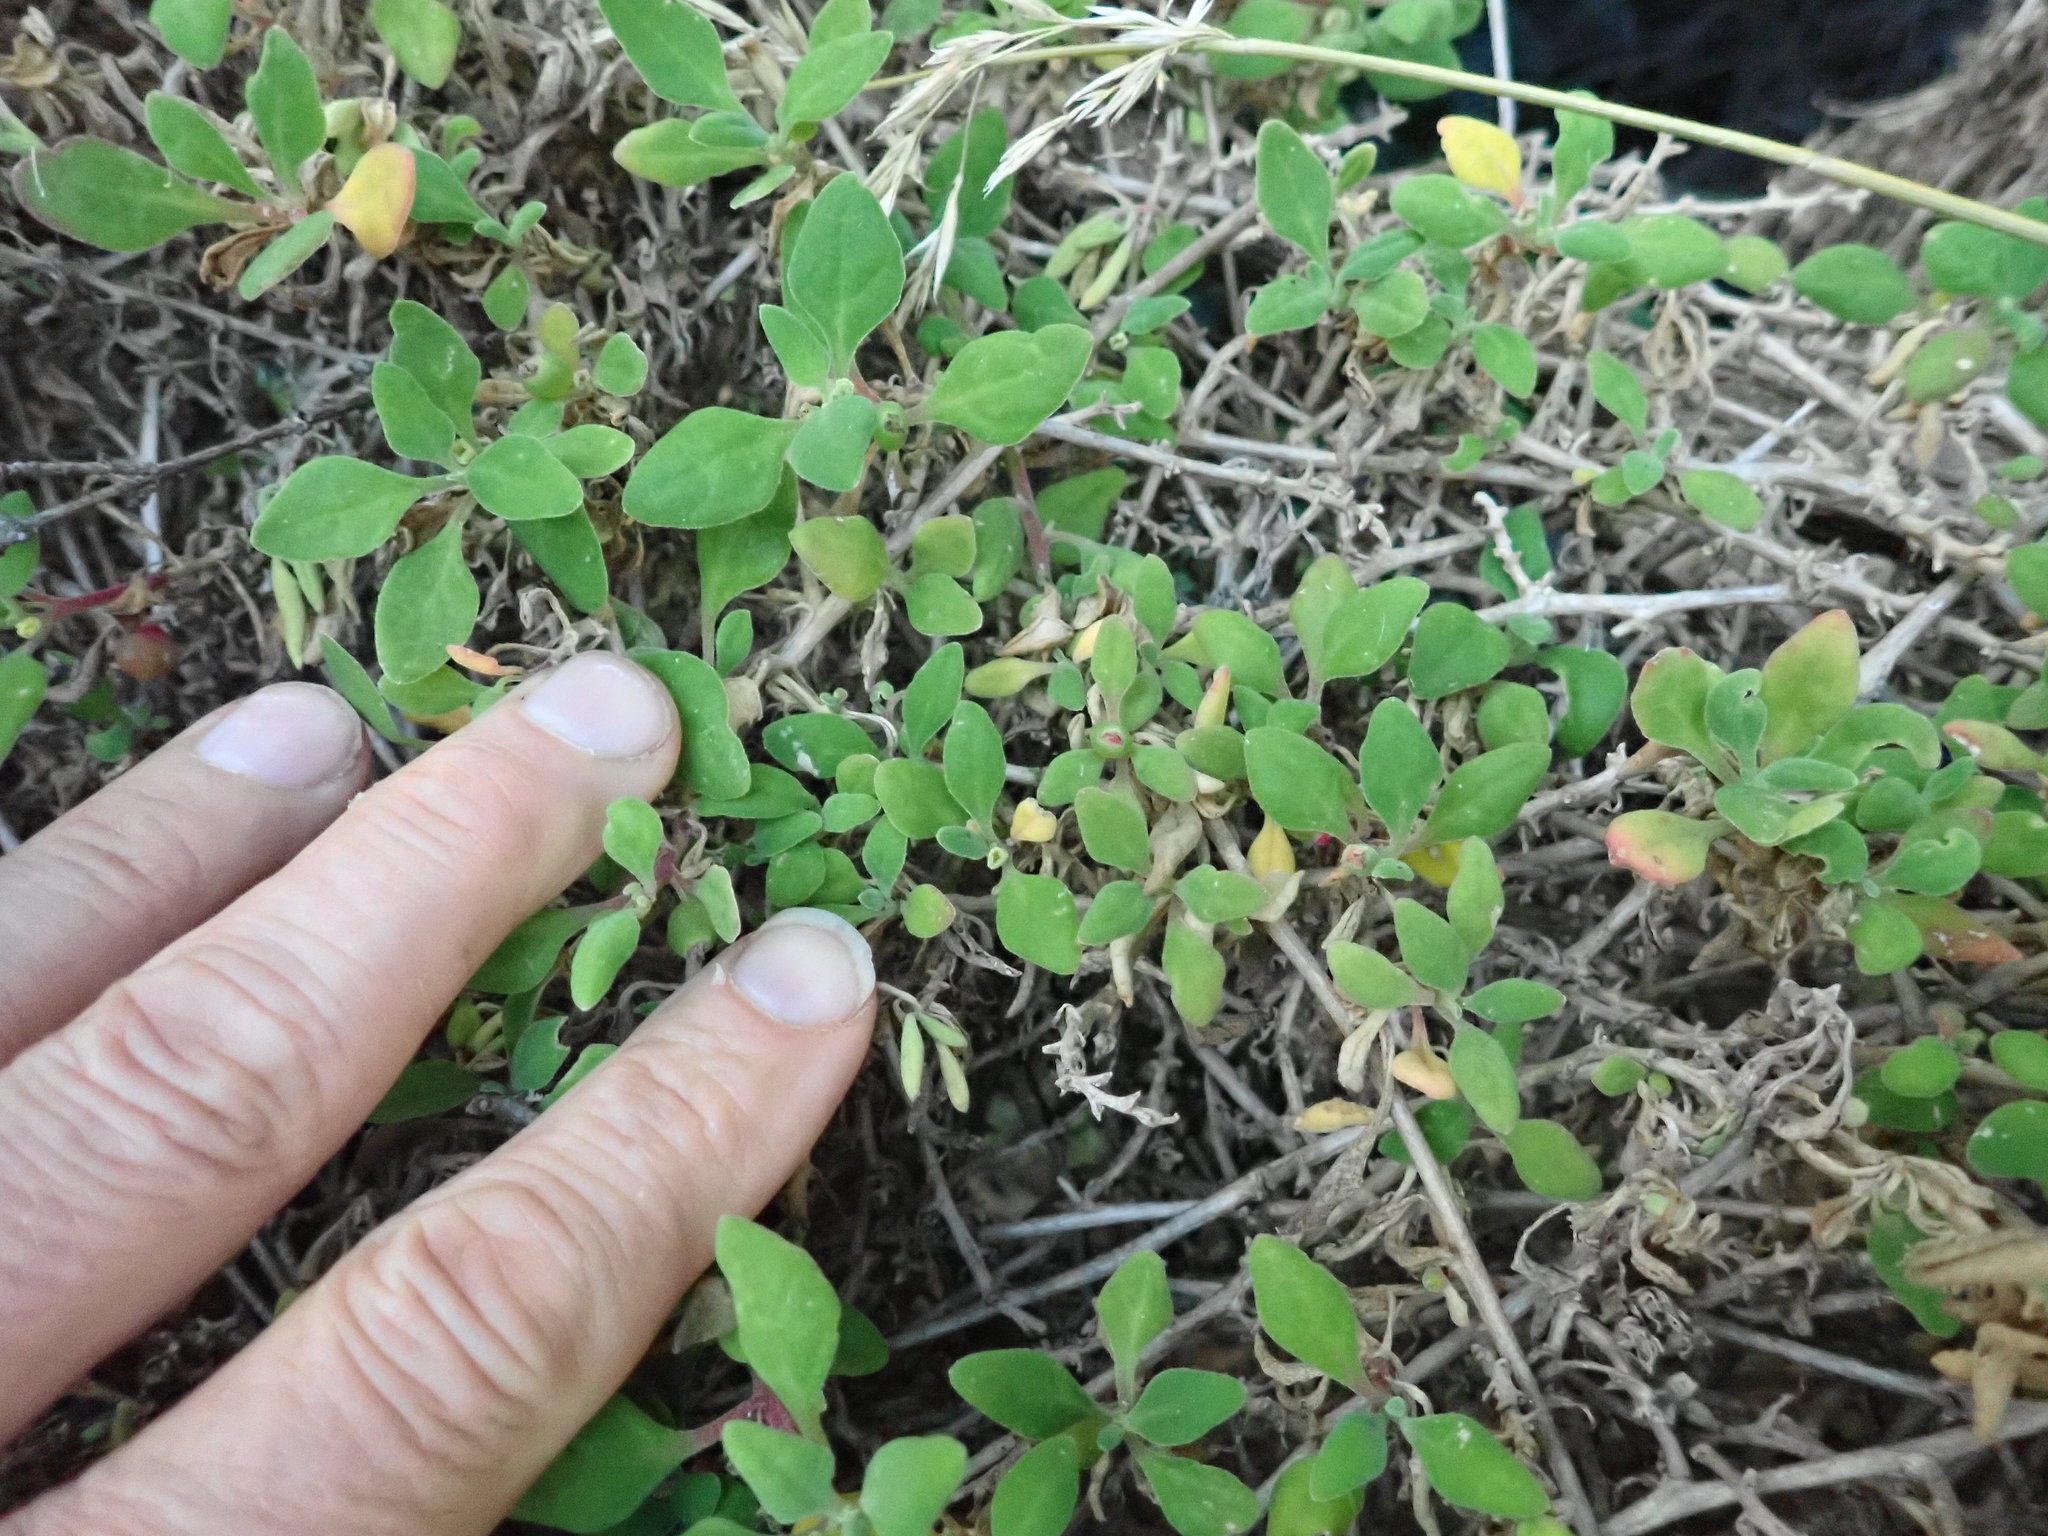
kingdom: Plantae
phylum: Tracheophyta
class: Magnoliopsida
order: Caryophyllales
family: Aizoaceae
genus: Tetragonia
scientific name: Tetragonia implexicoma
